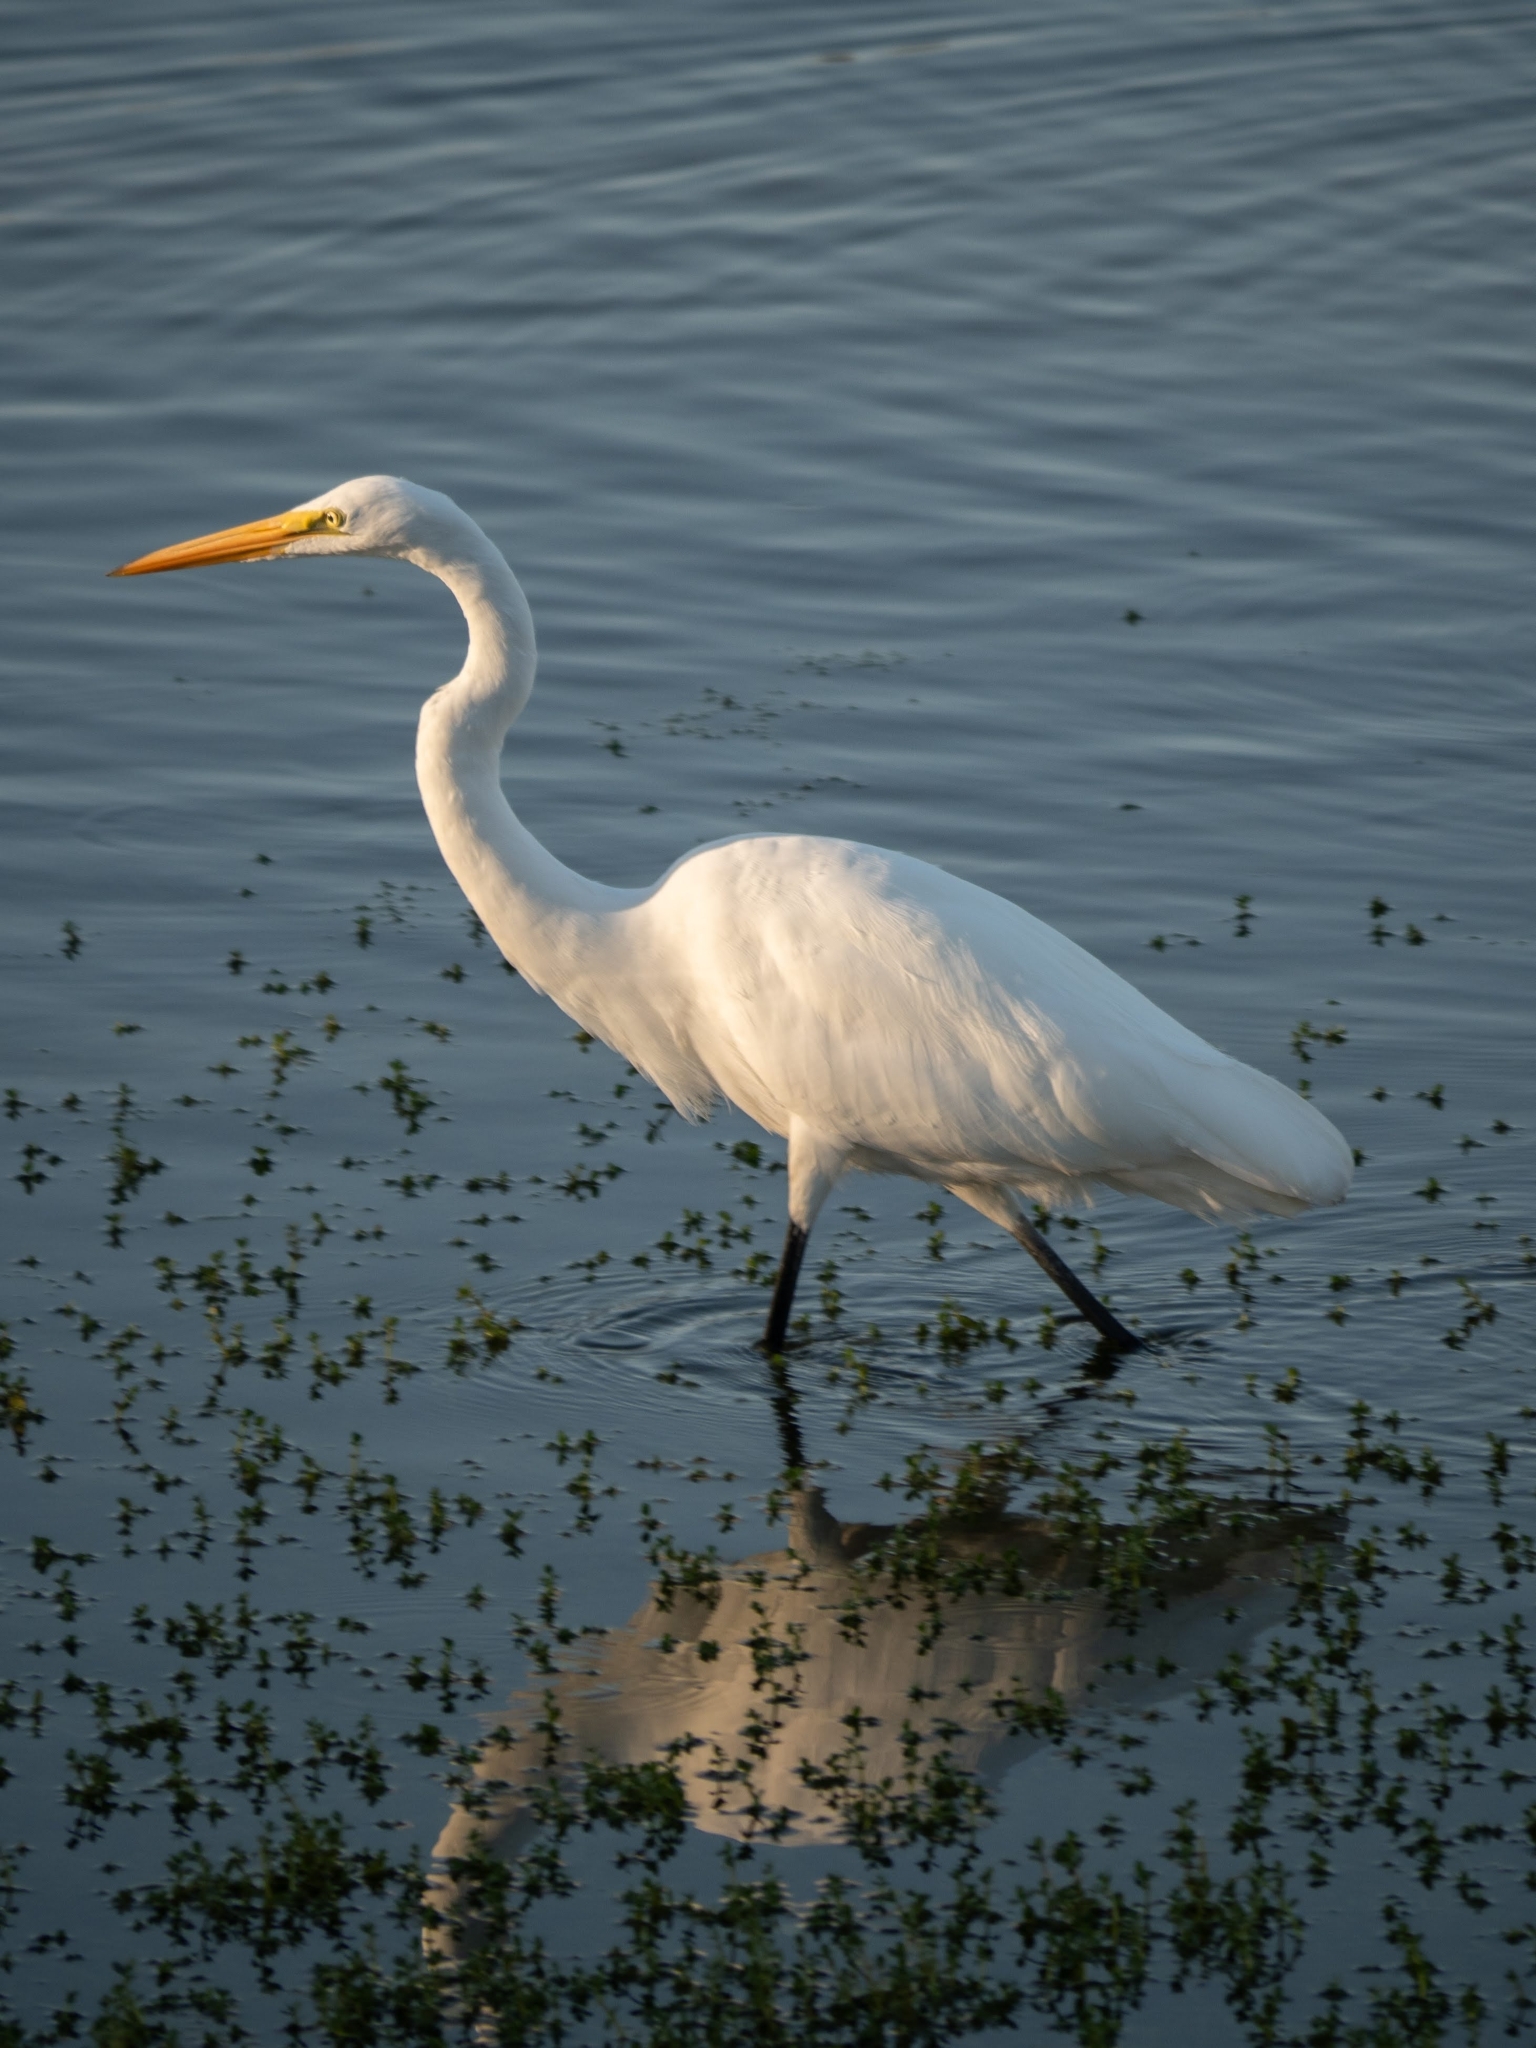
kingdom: Animalia
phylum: Chordata
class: Aves
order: Pelecaniformes
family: Ardeidae
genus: Ardea
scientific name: Ardea alba
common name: Great egret
